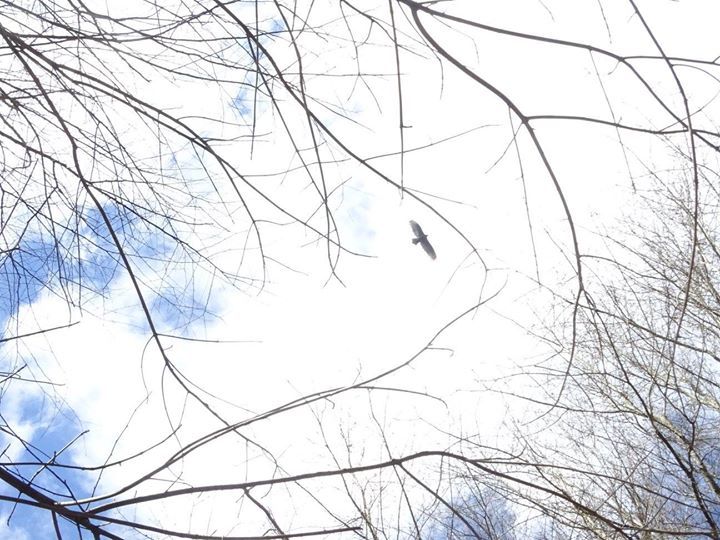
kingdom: Animalia
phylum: Chordata
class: Aves
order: Accipitriformes
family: Cathartidae
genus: Cathartes
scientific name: Cathartes aura
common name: Turkey vulture
